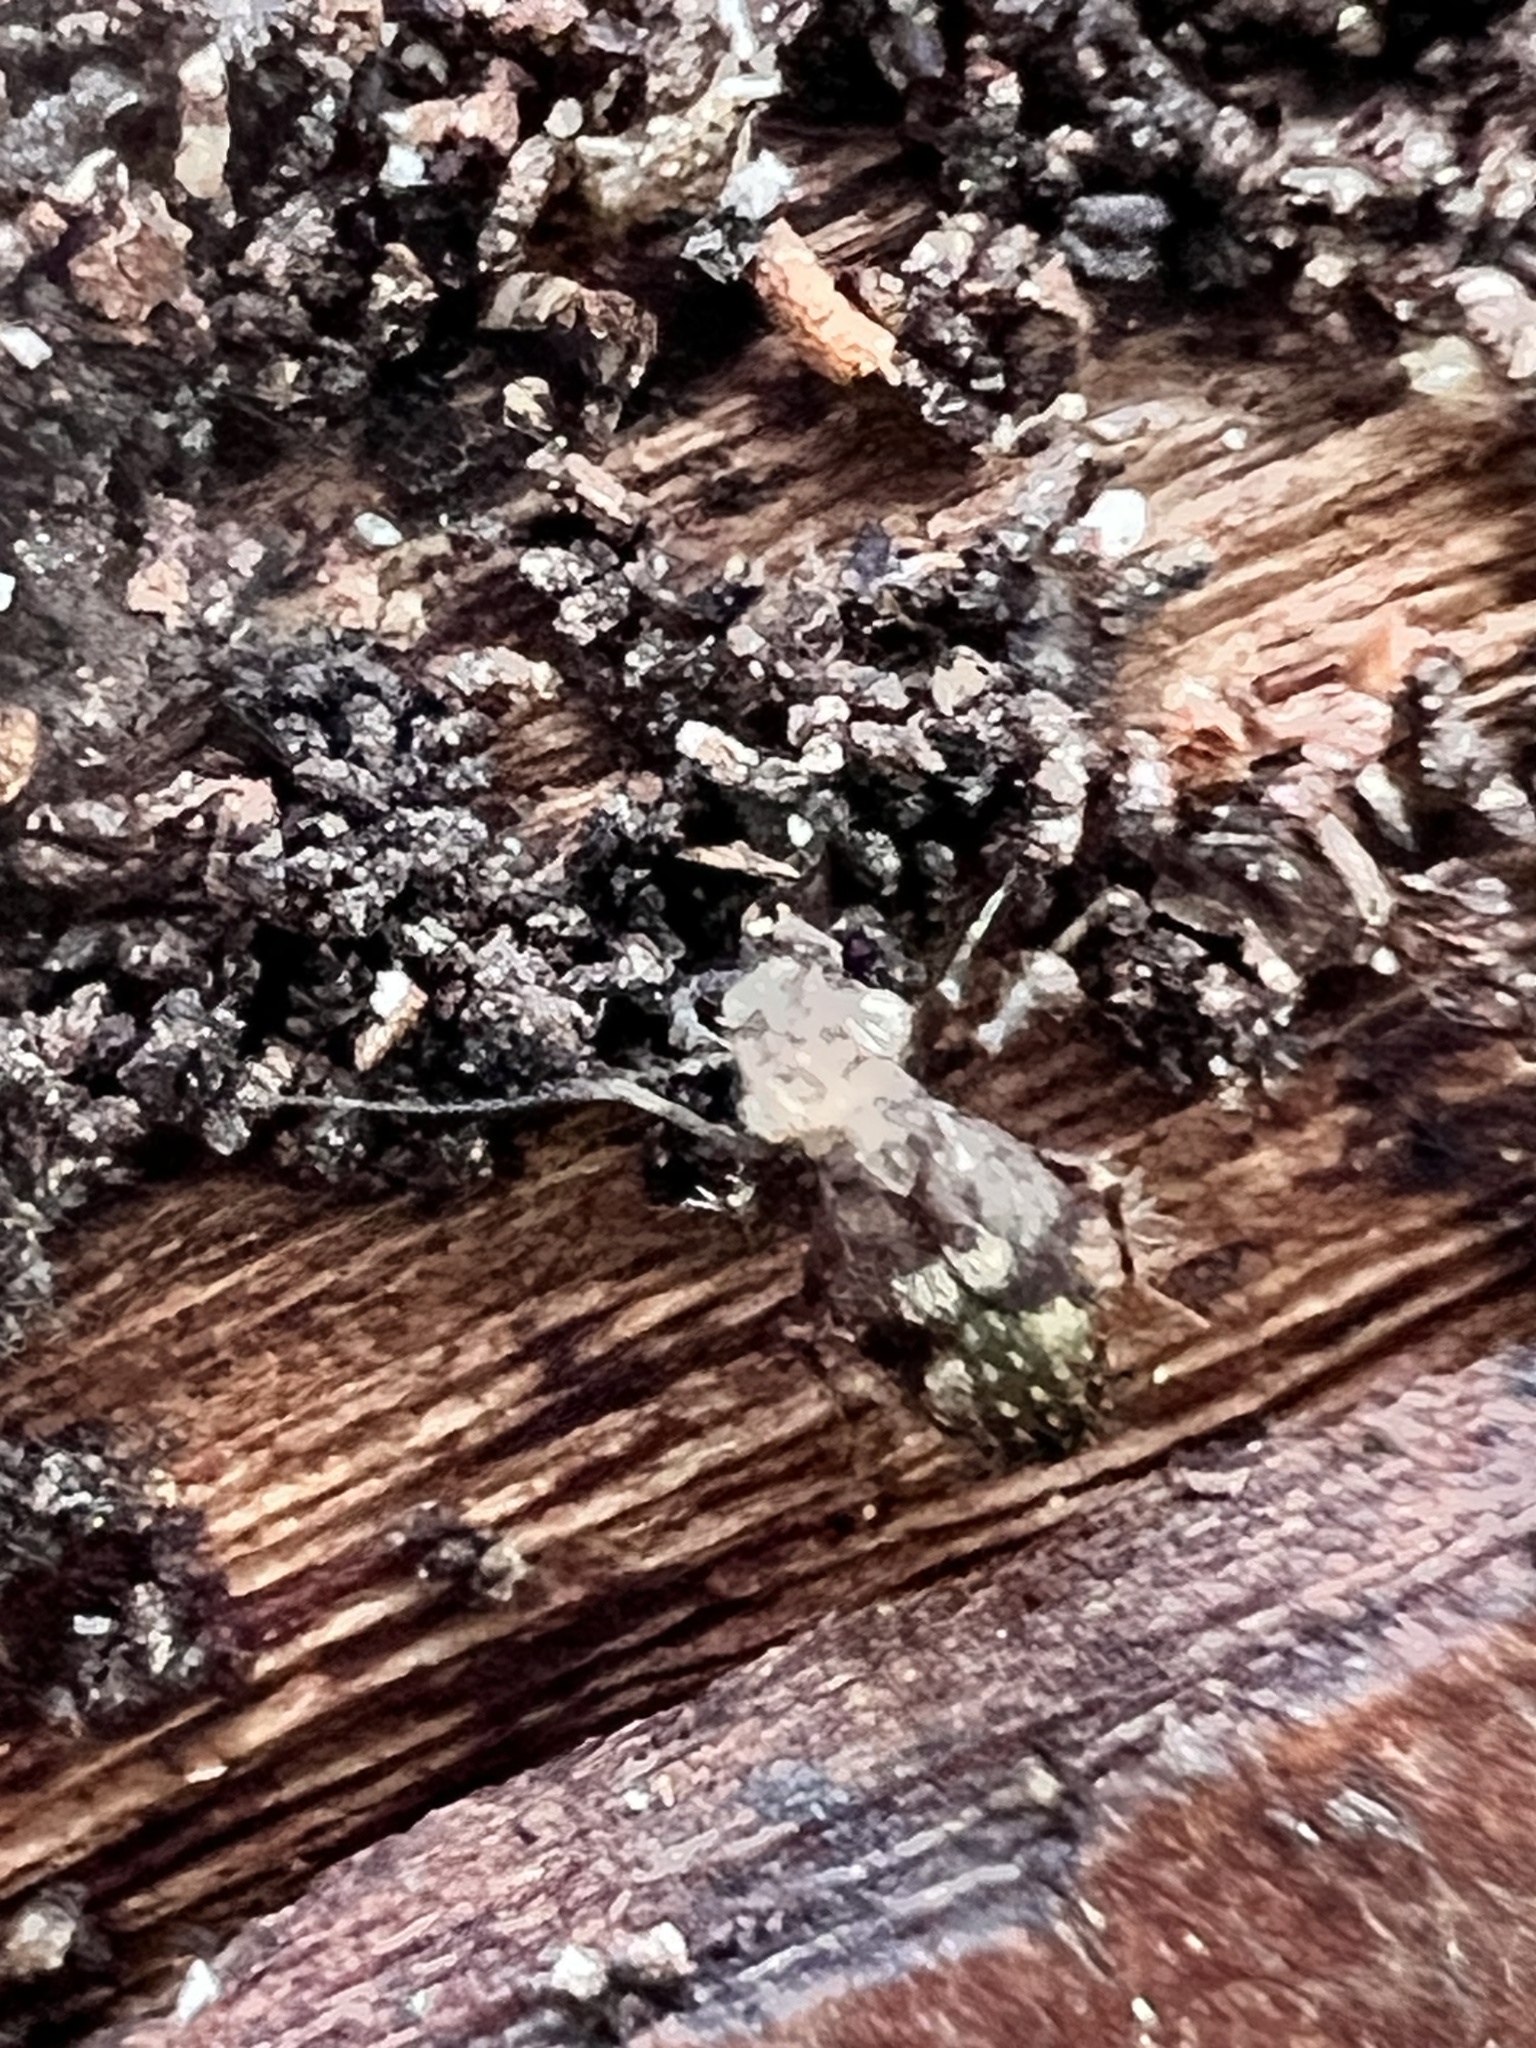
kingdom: Animalia
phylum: Arthropoda
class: Insecta
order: Psocodea
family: Lepidopsocidae
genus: Pteroxanium
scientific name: Pteroxanium kelloggi
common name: Bark lice
